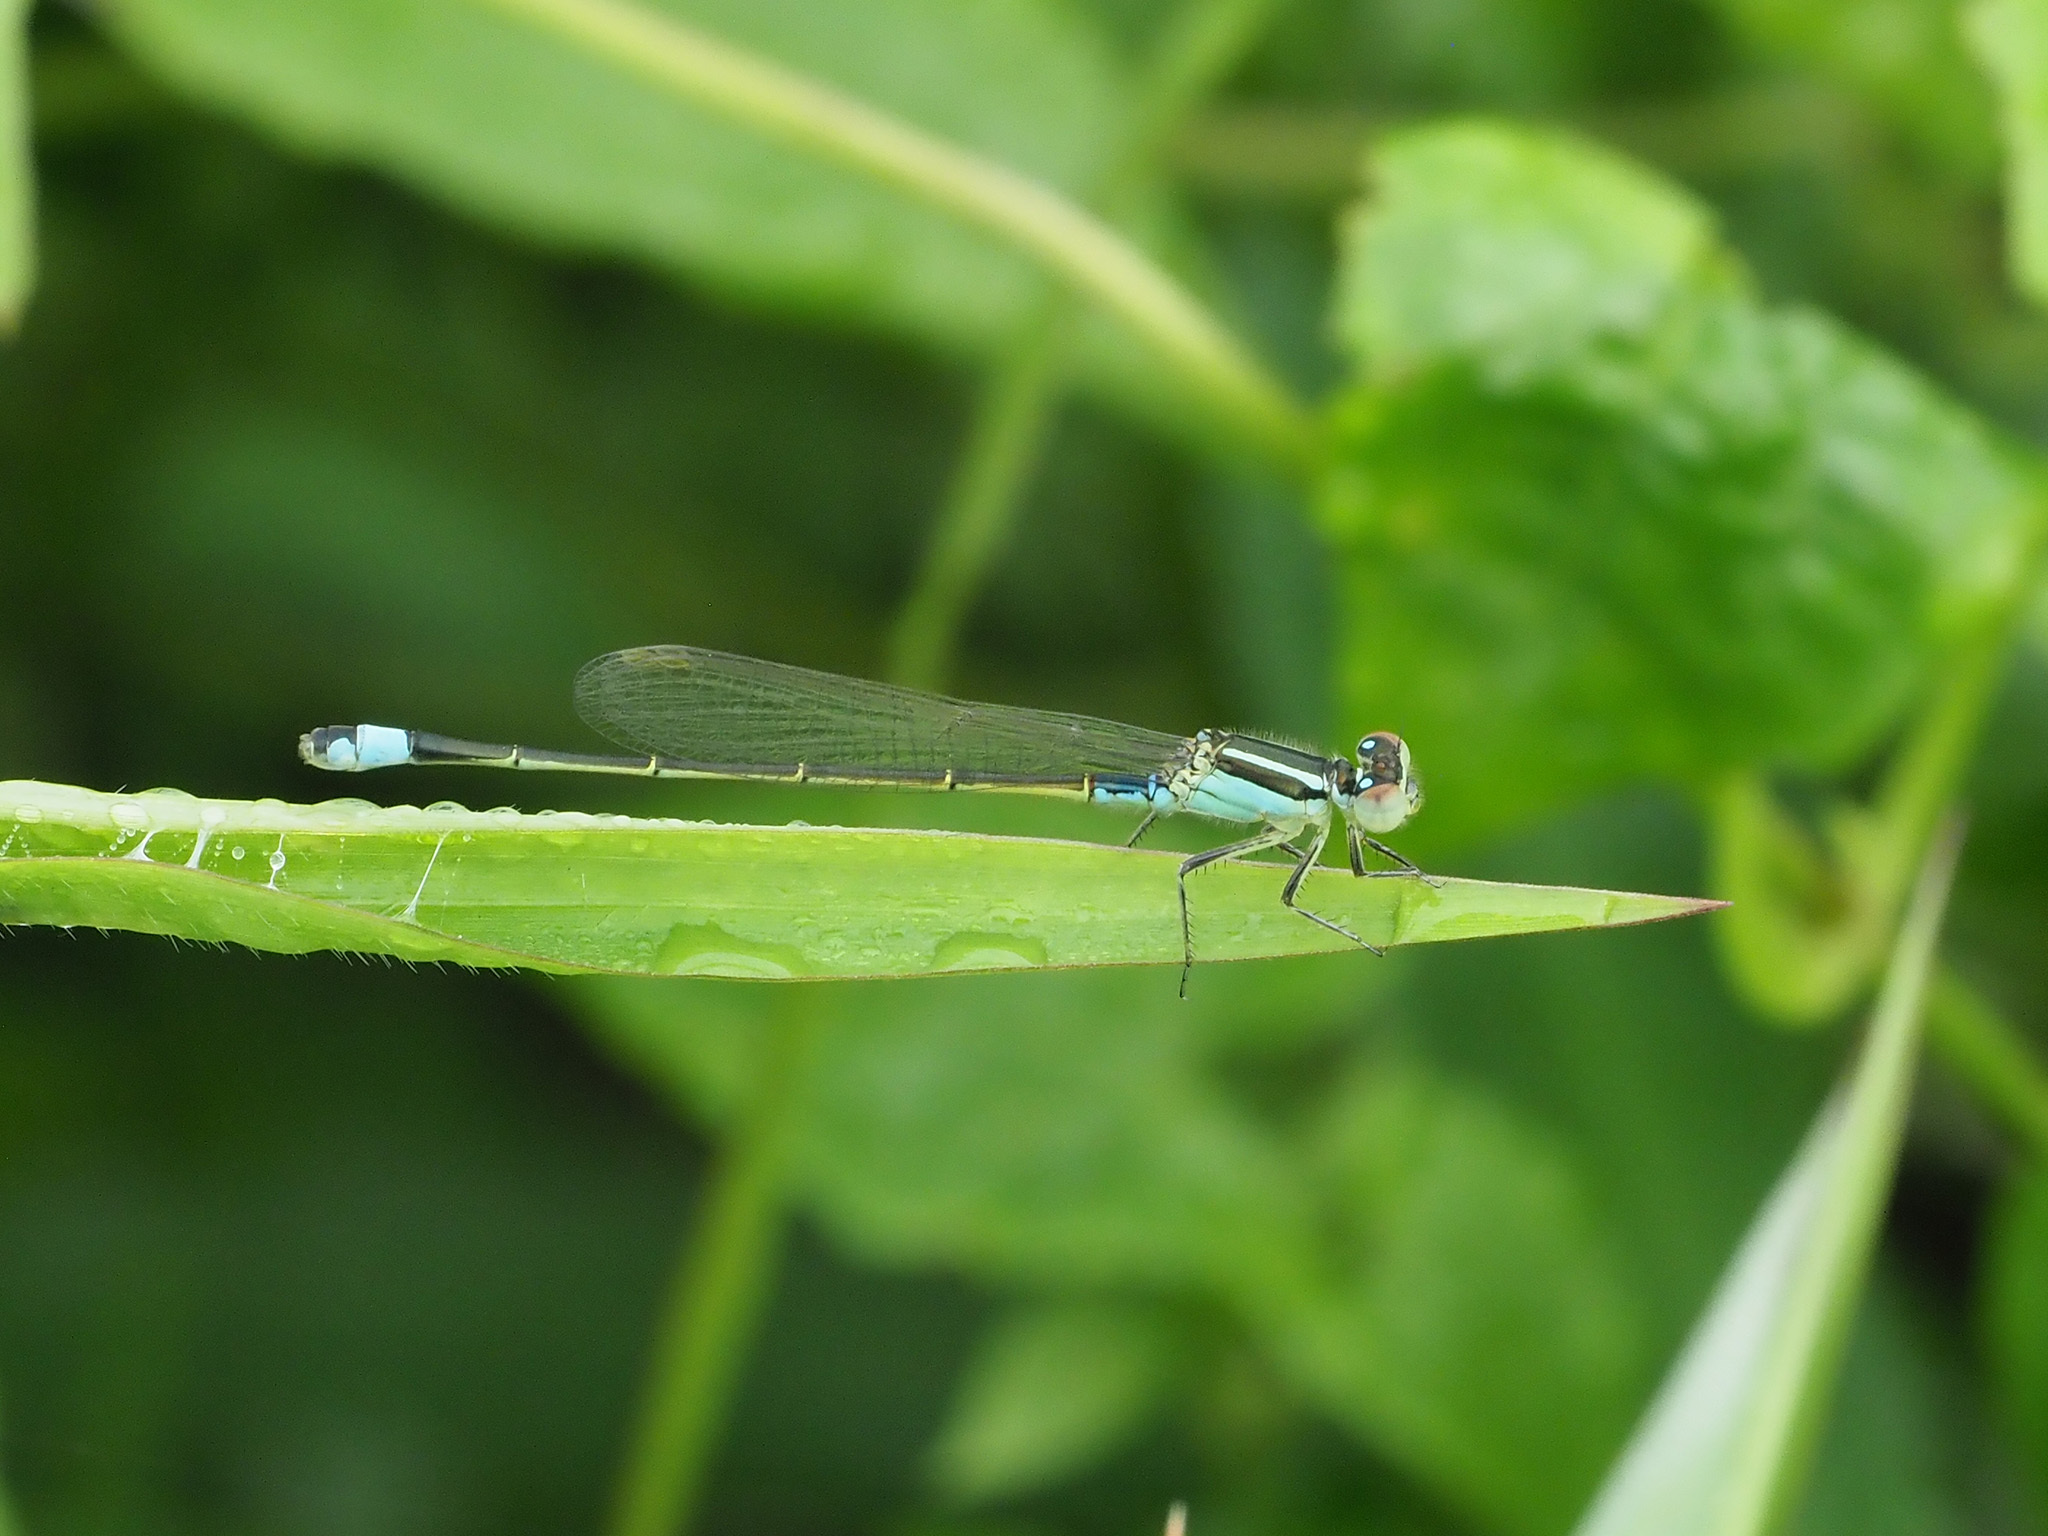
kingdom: Animalia
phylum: Arthropoda
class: Insecta
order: Odonata
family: Coenagrionidae
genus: Ischnura
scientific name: Ischnura senegalensis
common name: Tropical bluetail
